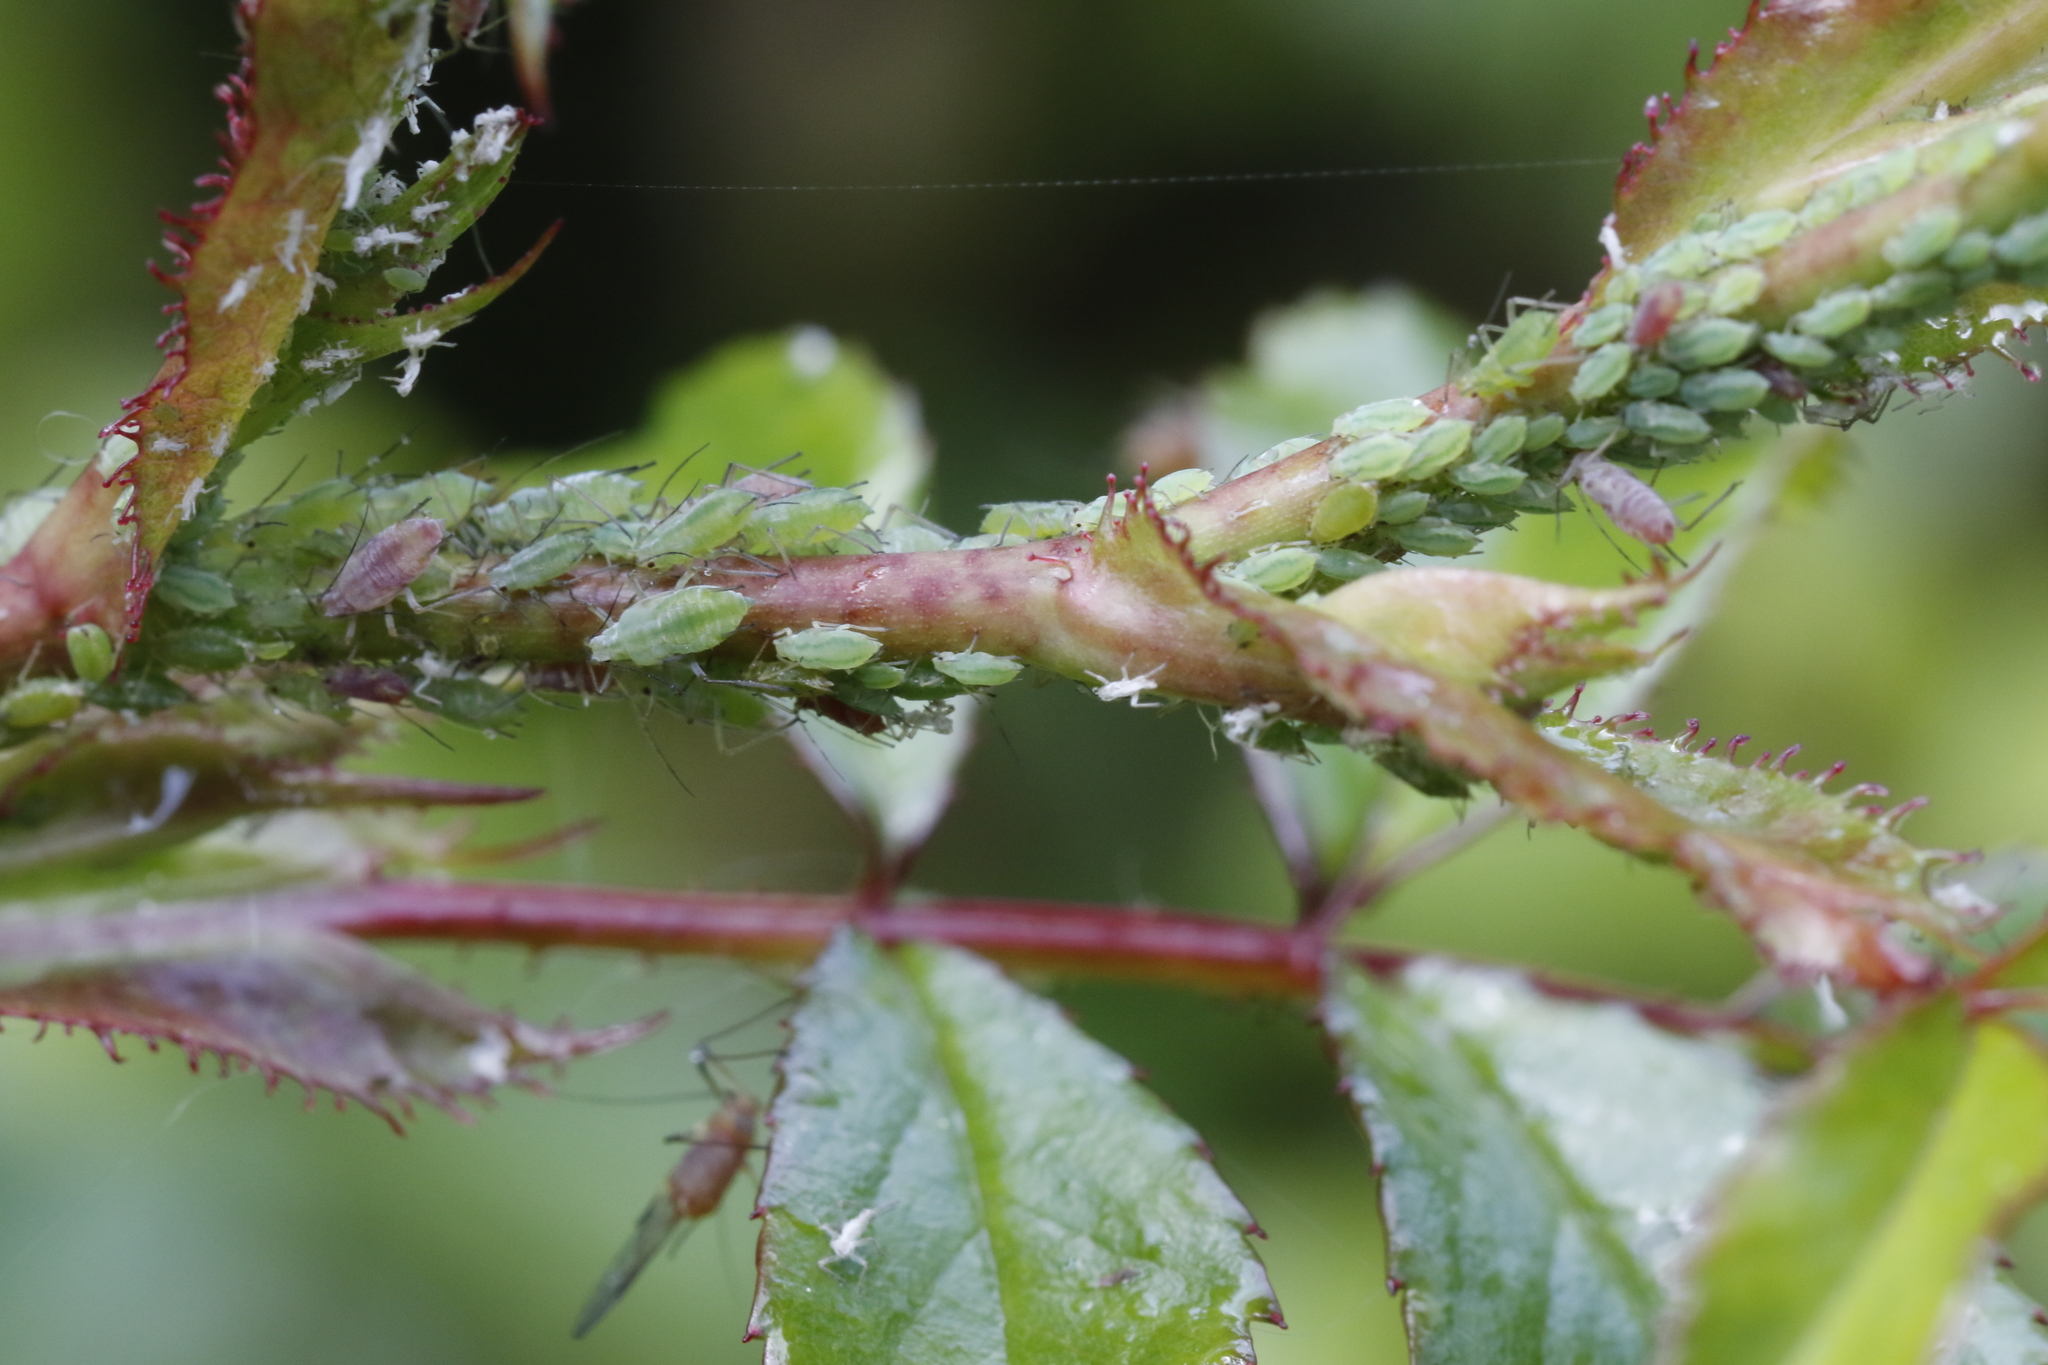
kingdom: Animalia
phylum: Arthropoda
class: Insecta
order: Hemiptera
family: Aphididae
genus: Macrosiphum
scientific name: Macrosiphum rosae
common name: Rose aphid
